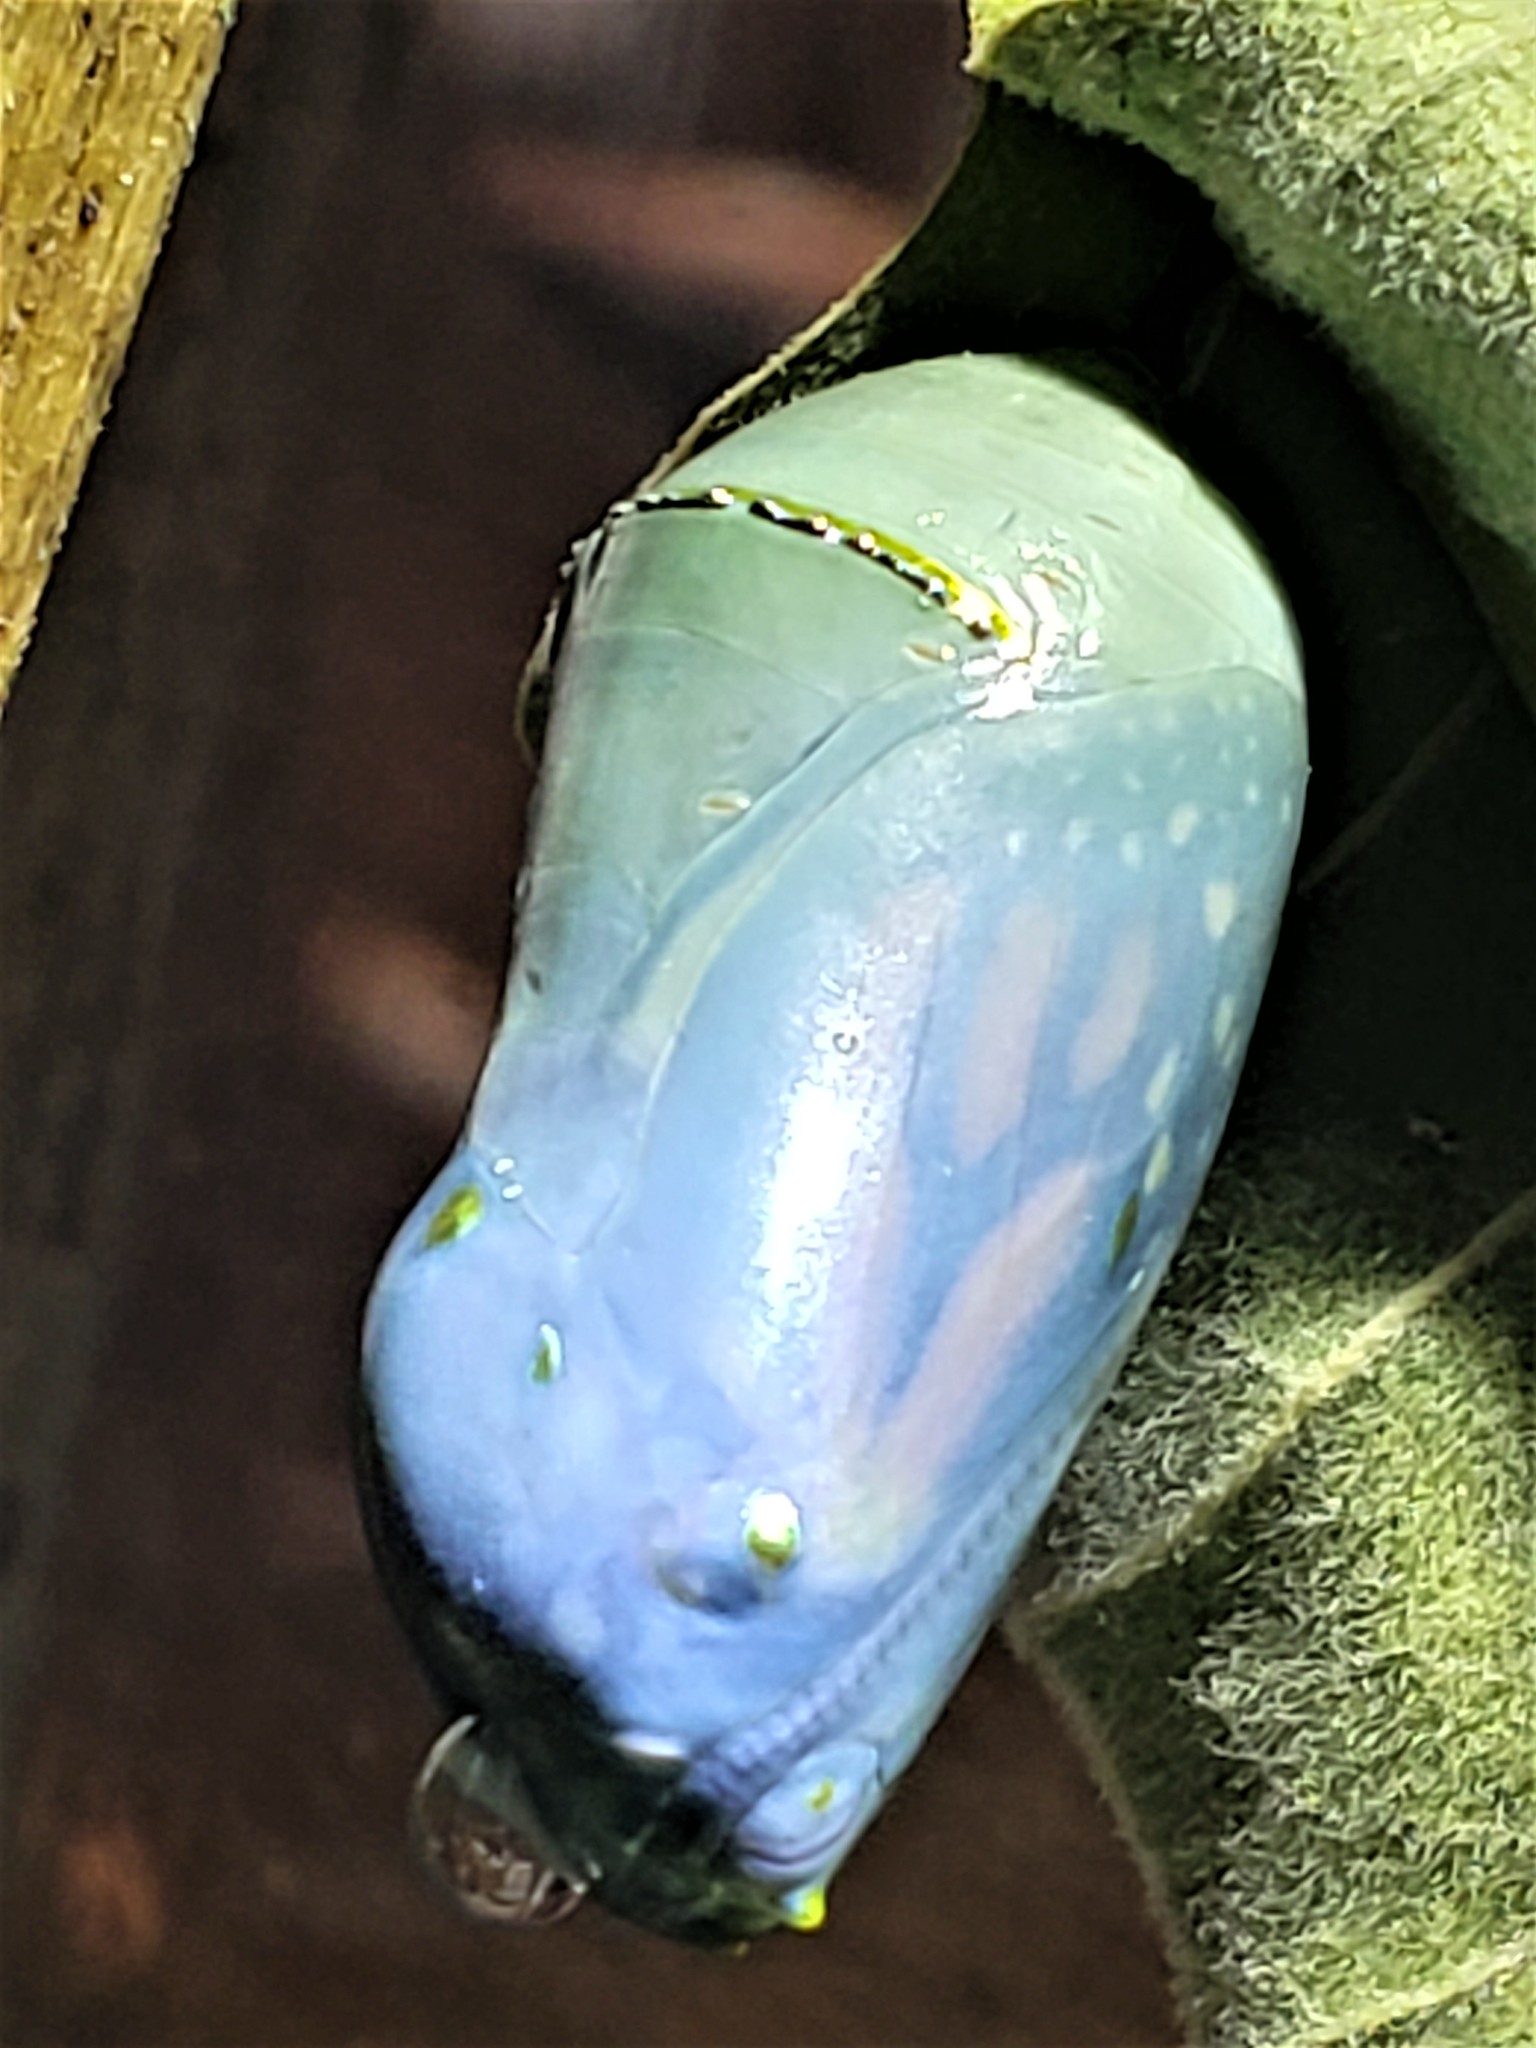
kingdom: Animalia
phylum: Arthropoda
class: Insecta
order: Lepidoptera
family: Nymphalidae
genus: Danaus
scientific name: Danaus plexippus
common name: Monarch
